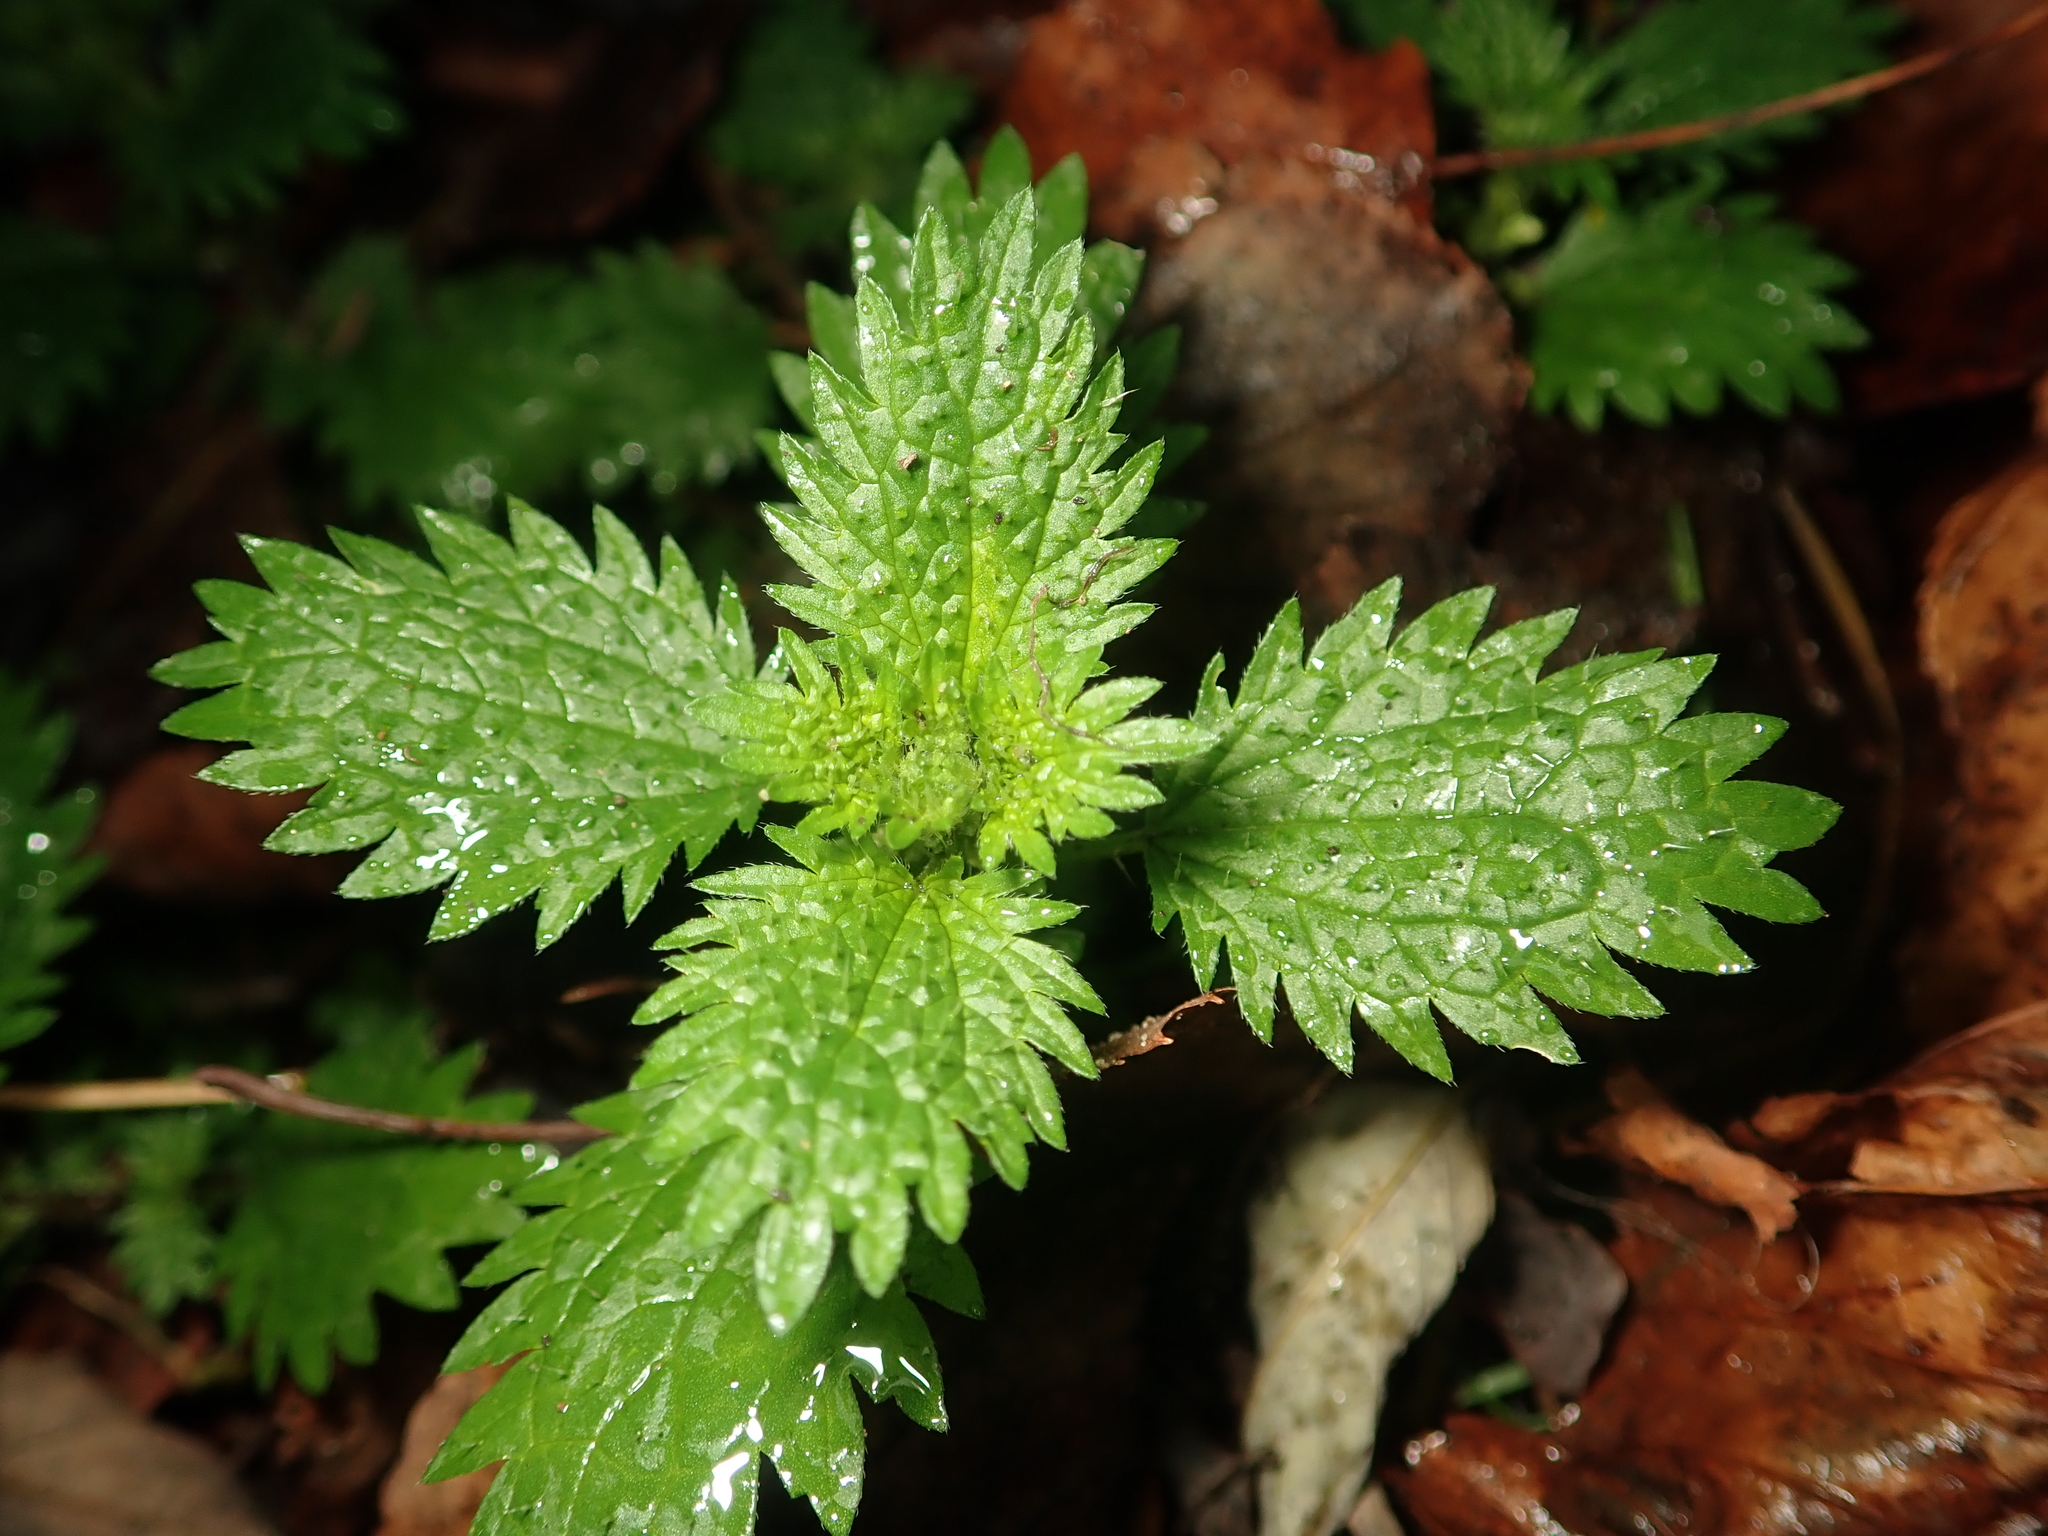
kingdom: Plantae
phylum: Tracheophyta
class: Magnoliopsida
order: Rosales
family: Urticaceae
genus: Urtica
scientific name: Urtica urens
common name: Dwarf nettle
